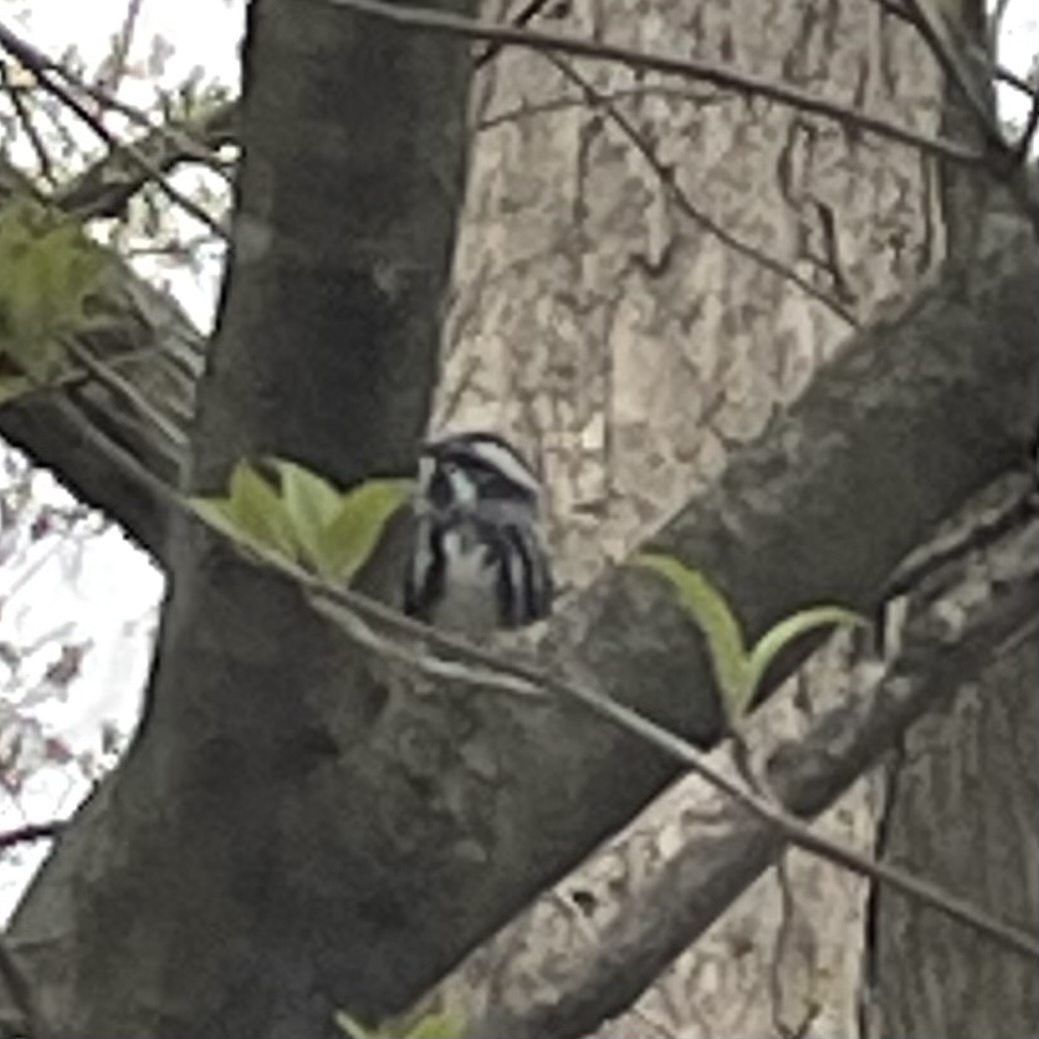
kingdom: Animalia
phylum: Chordata
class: Aves
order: Passeriformes
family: Parulidae
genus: Mniotilta
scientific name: Mniotilta varia
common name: Black-and-white warbler
